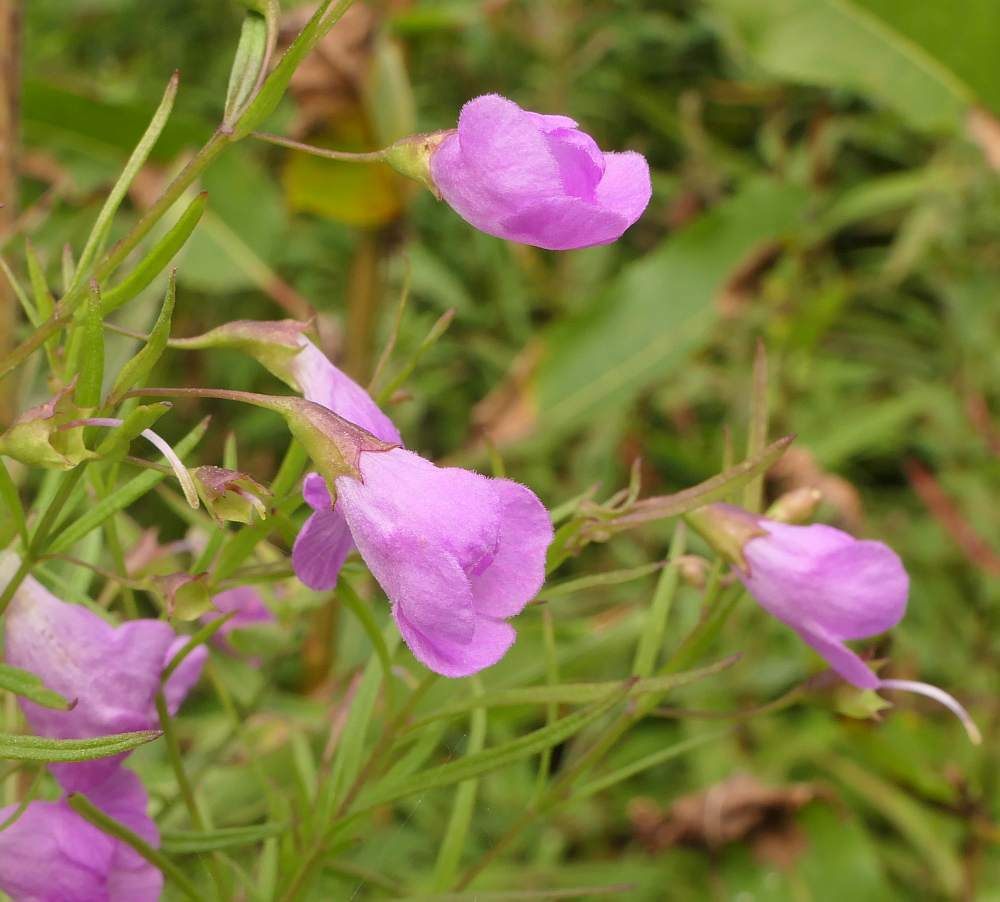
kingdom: Plantae
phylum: Tracheophyta
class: Magnoliopsida
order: Lamiales
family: Orobanchaceae
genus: Agalinis
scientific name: Agalinis tenuifolia
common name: Slender agalinis
